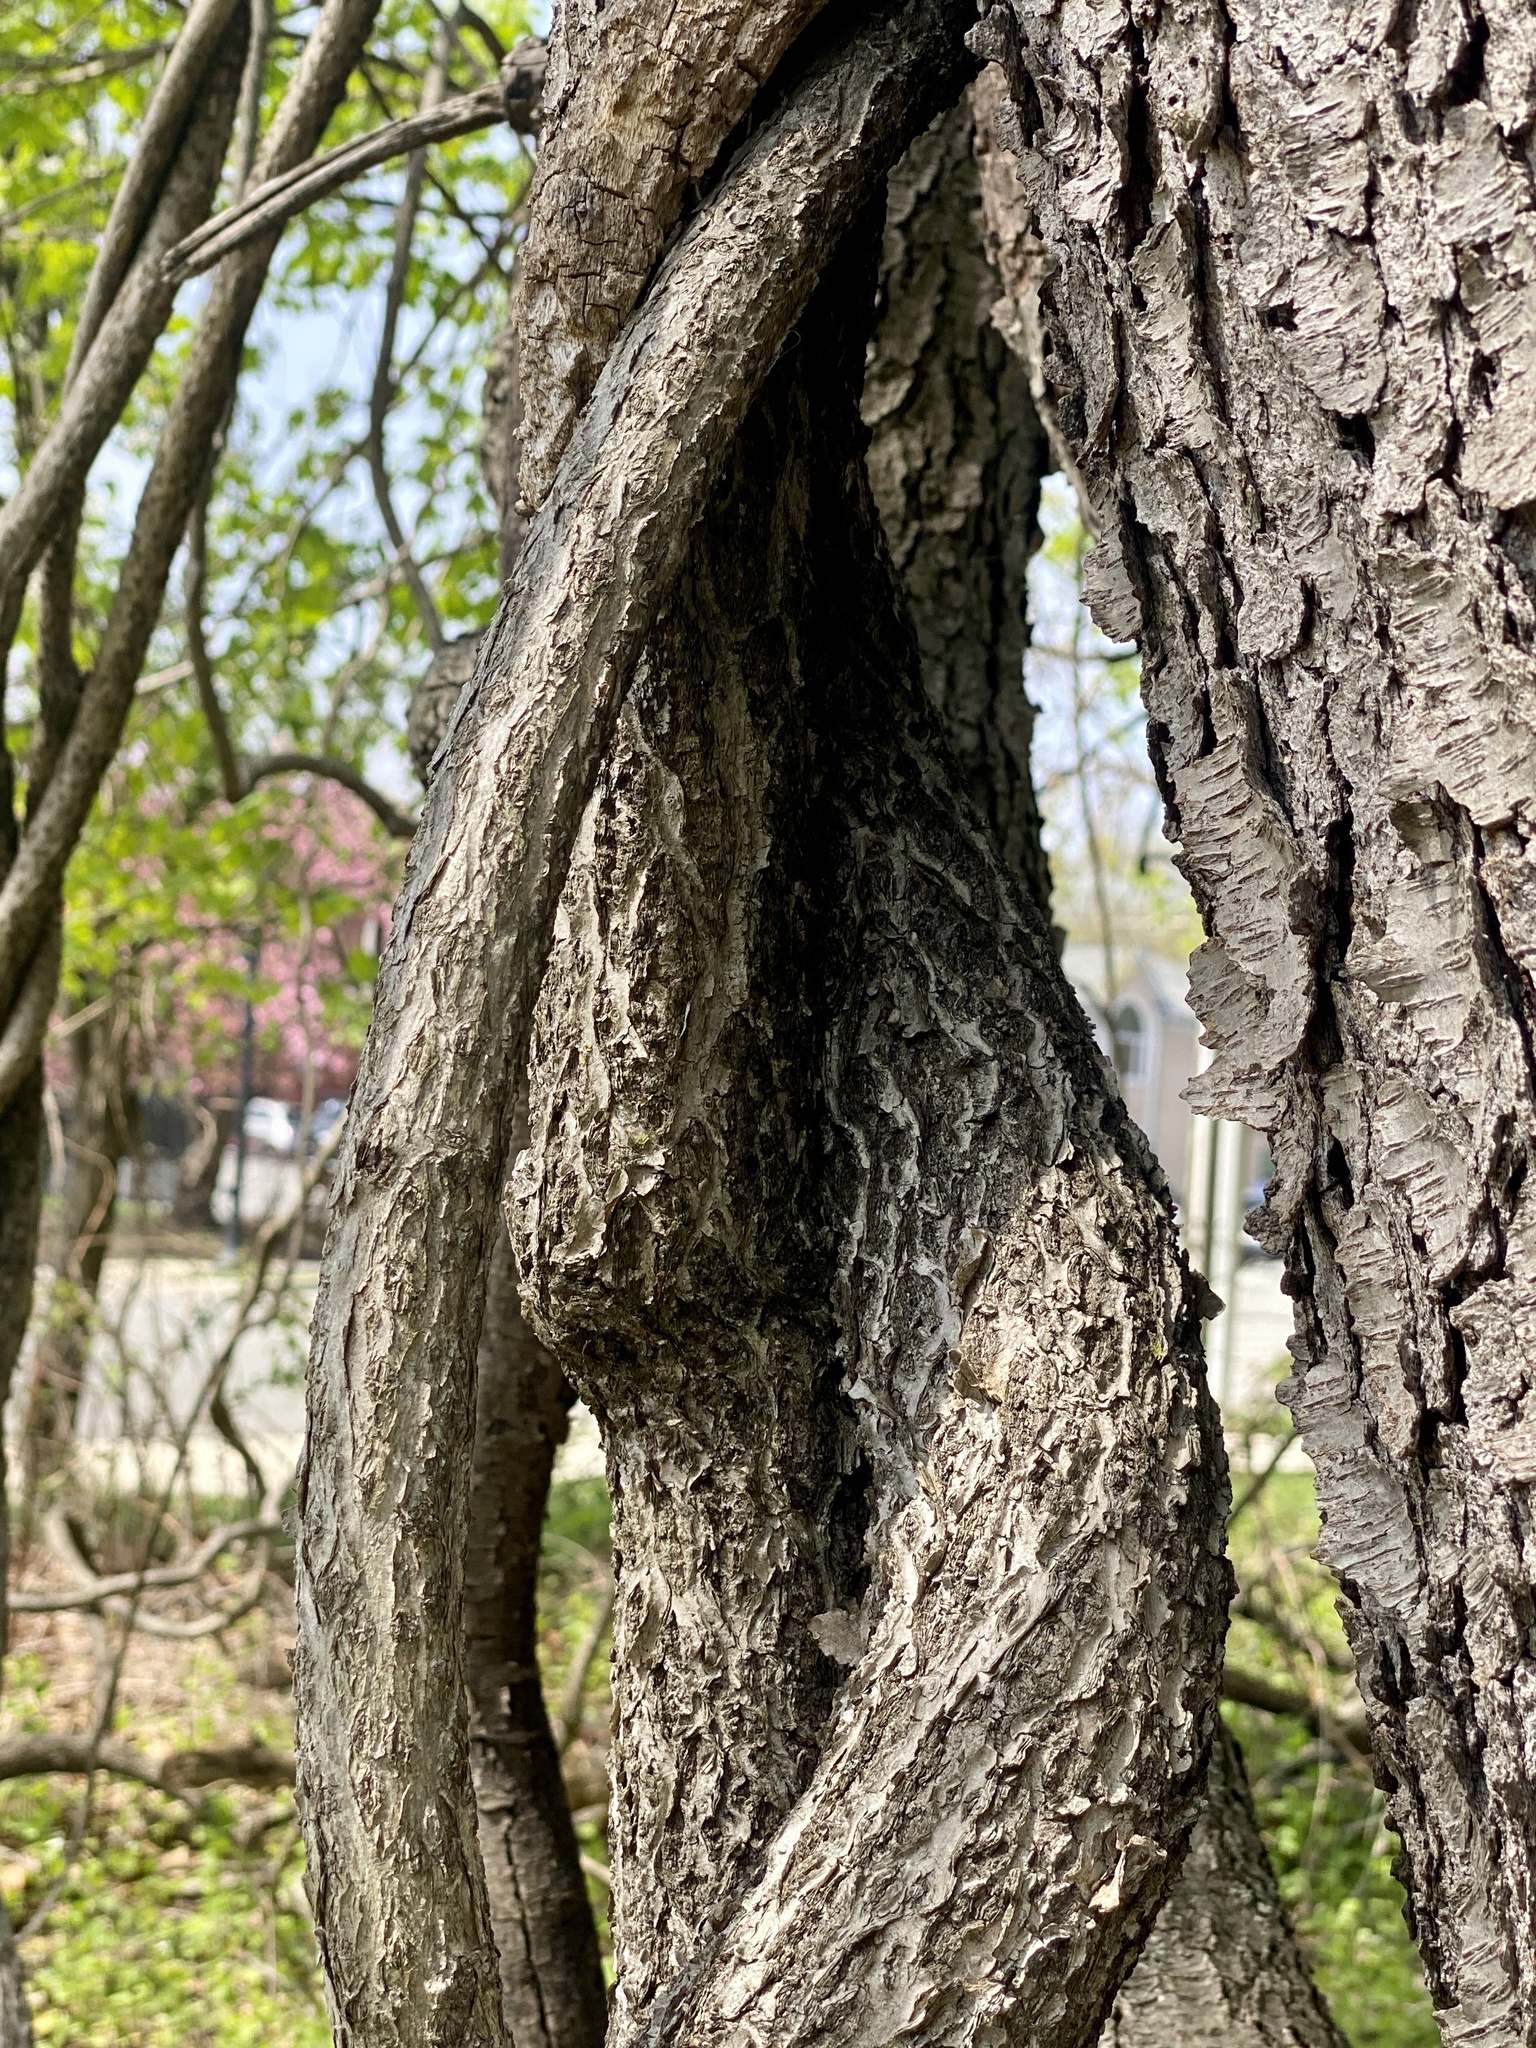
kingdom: Plantae
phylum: Tracheophyta
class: Magnoliopsida
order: Celastrales
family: Celastraceae
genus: Celastrus
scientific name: Celastrus orbiculatus
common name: Oriental bittersweet
